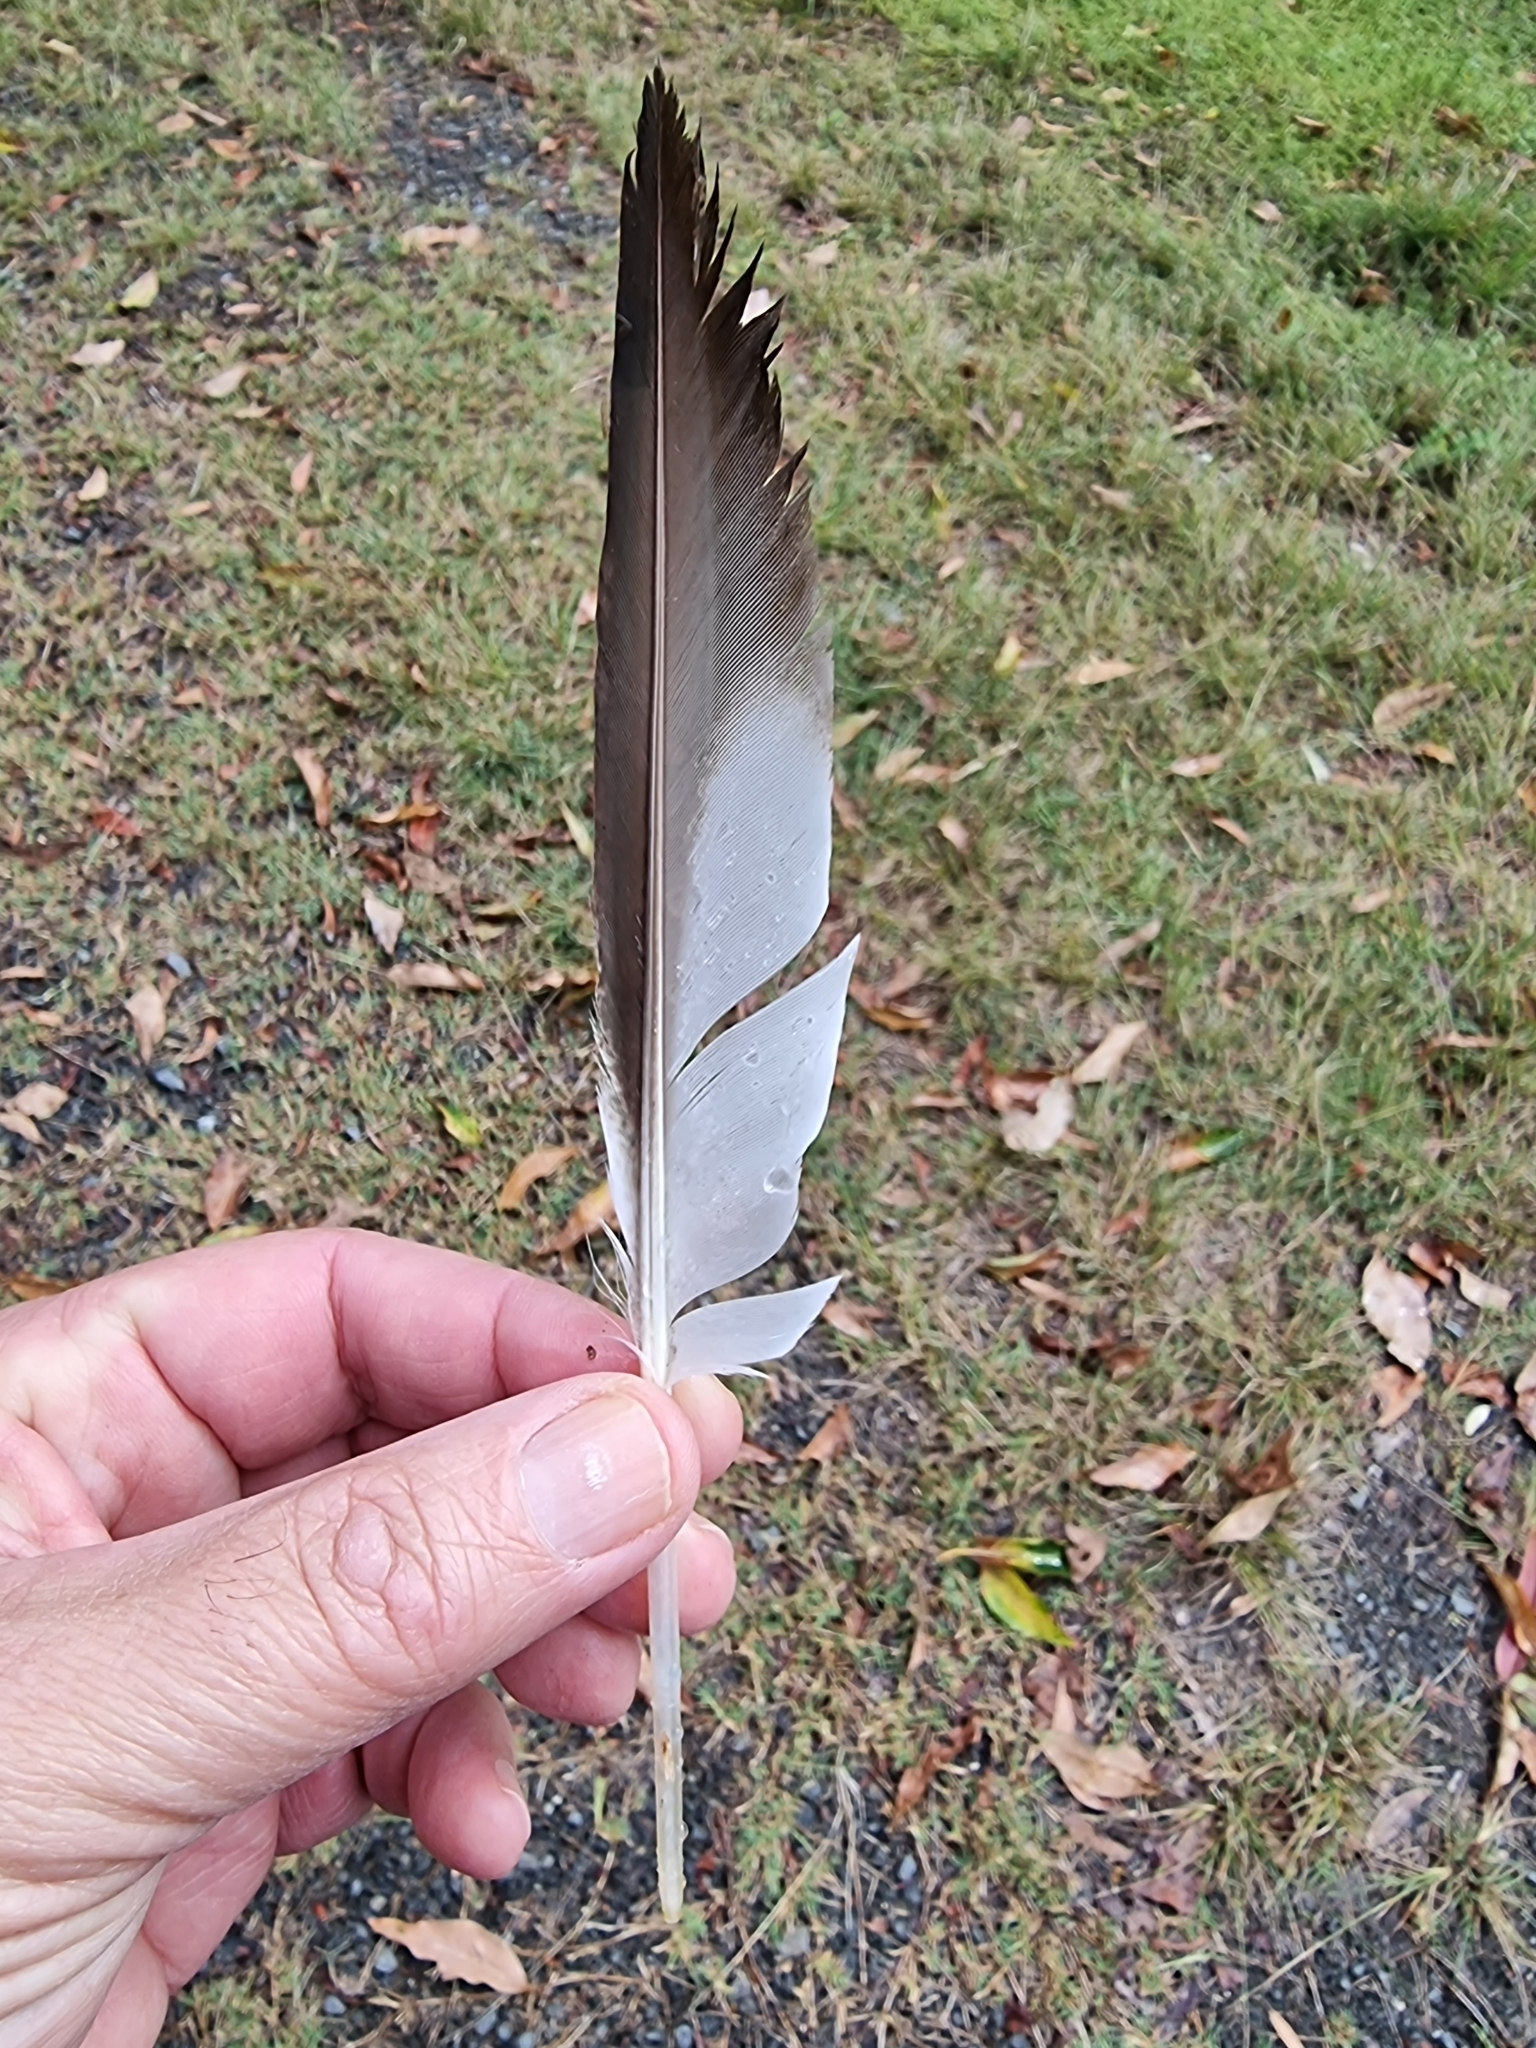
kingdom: Animalia
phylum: Chordata
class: Aves
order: Anseriformes
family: Anatidae
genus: Chenonetta
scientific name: Chenonetta jubata
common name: Maned duck
